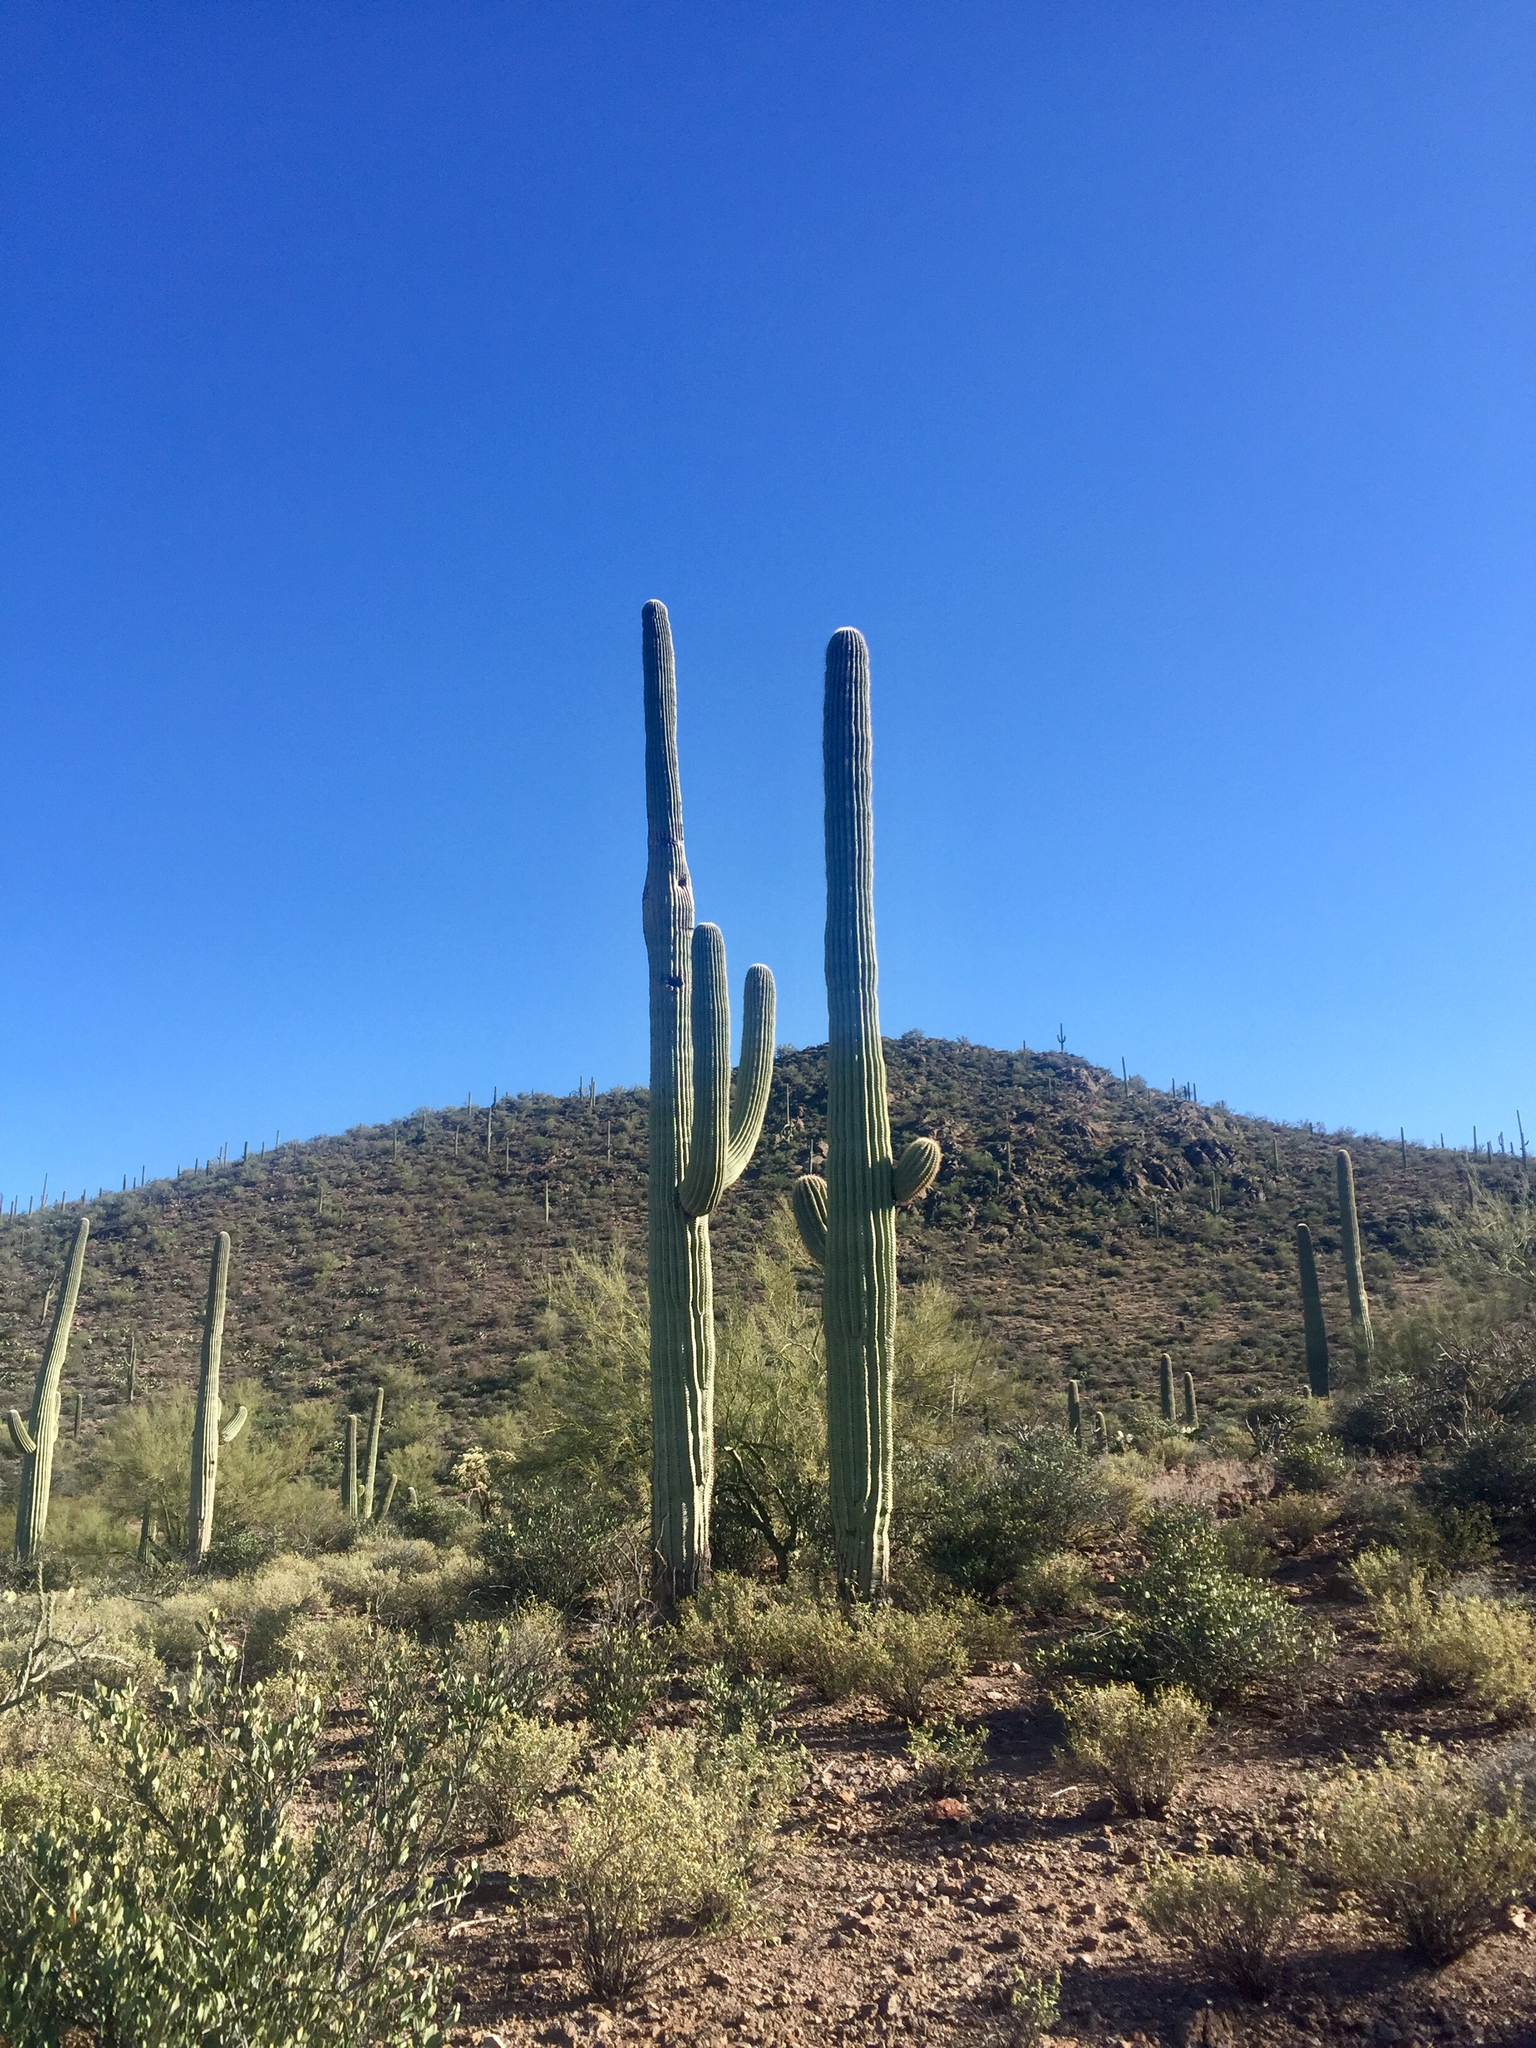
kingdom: Plantae
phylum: Tracheophyta
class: Magnoliopsida
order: Caryophyllales
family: Cactaceae
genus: Carnegiea
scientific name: Carnegiea gigantea
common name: Saguaro
